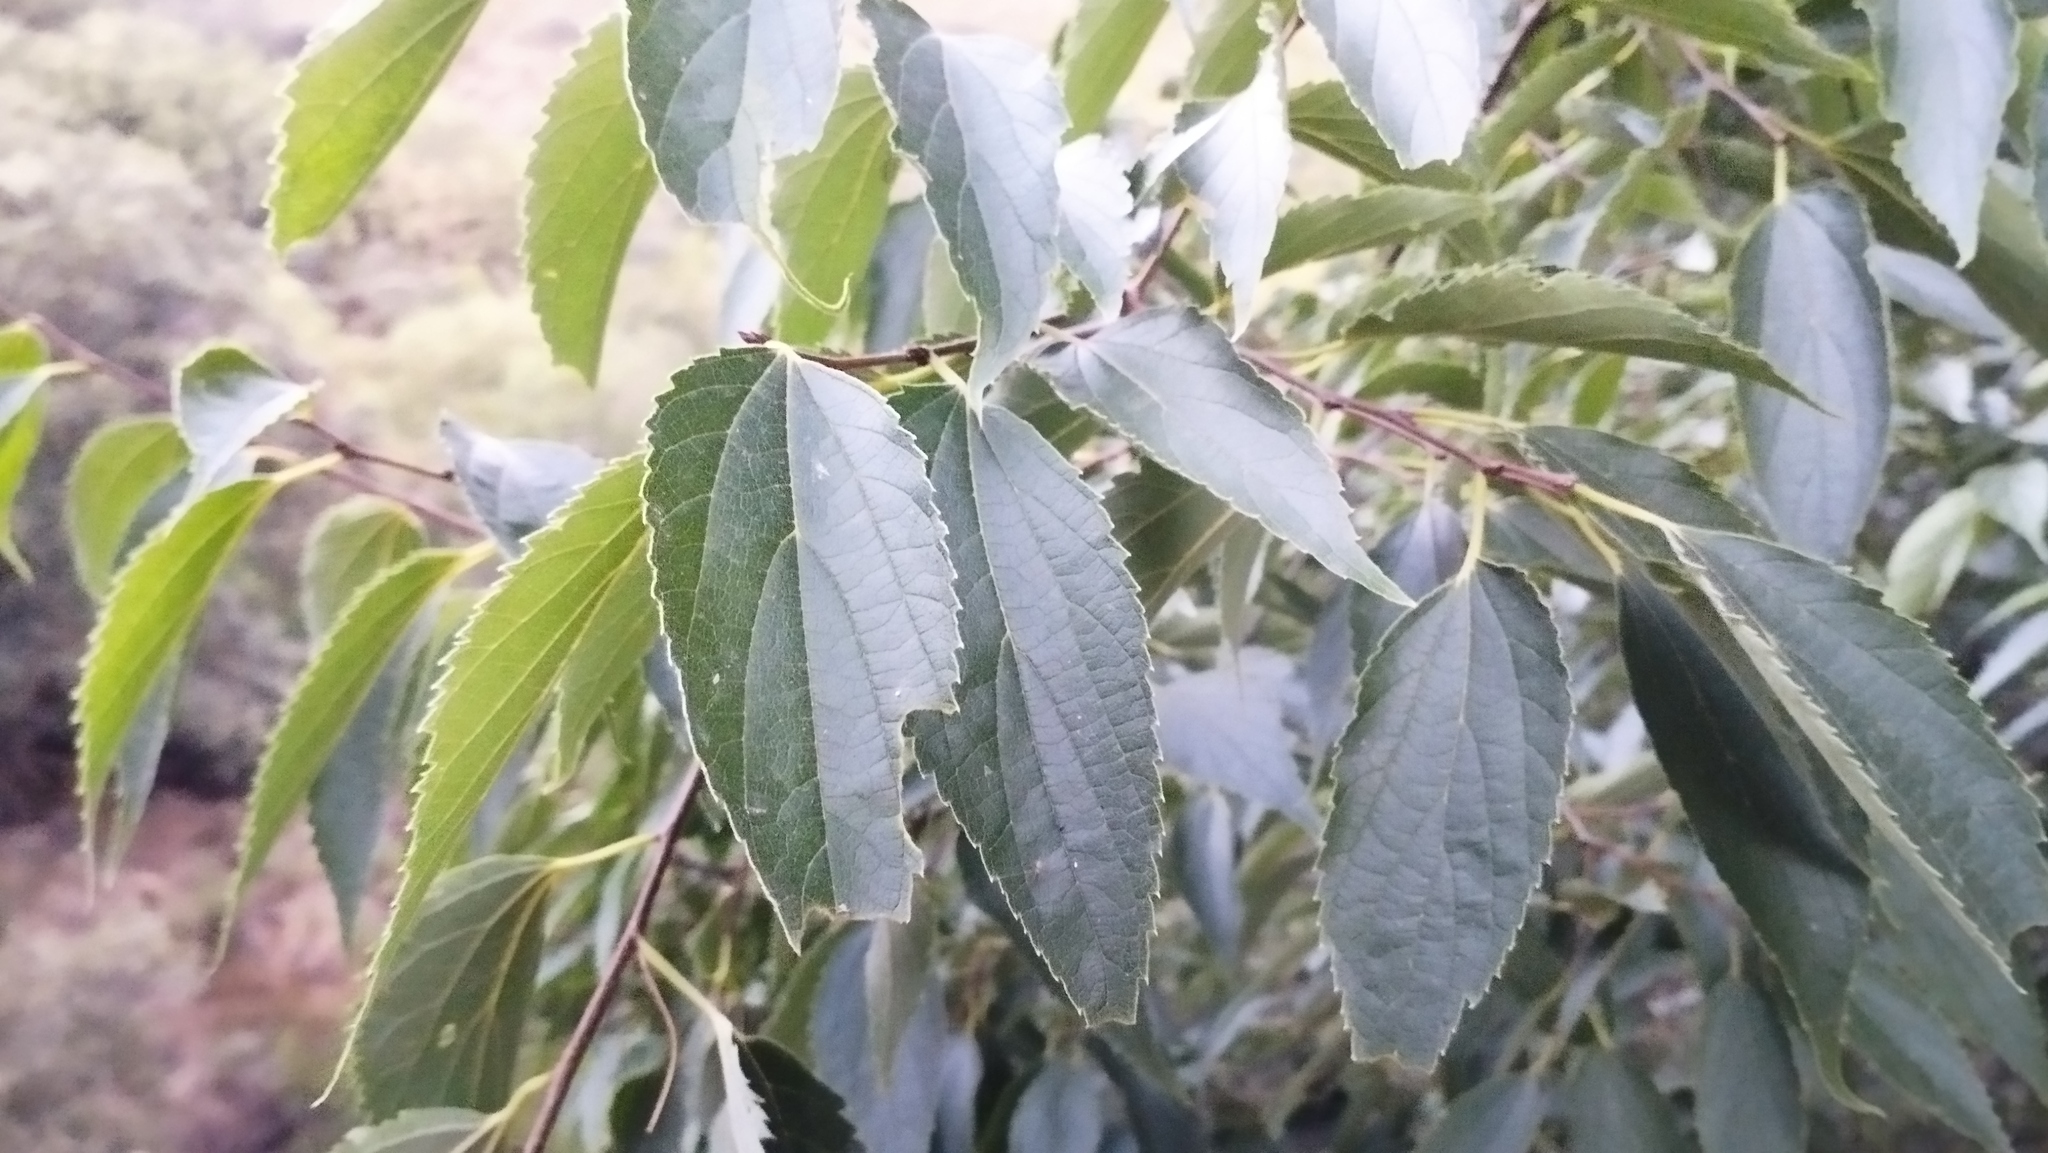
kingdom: Plantae
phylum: Tracheophyta
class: Magnoliopsida
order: Rosales
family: Cannabaceae
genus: Celtis
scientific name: Celtis australis
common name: European hackberry
